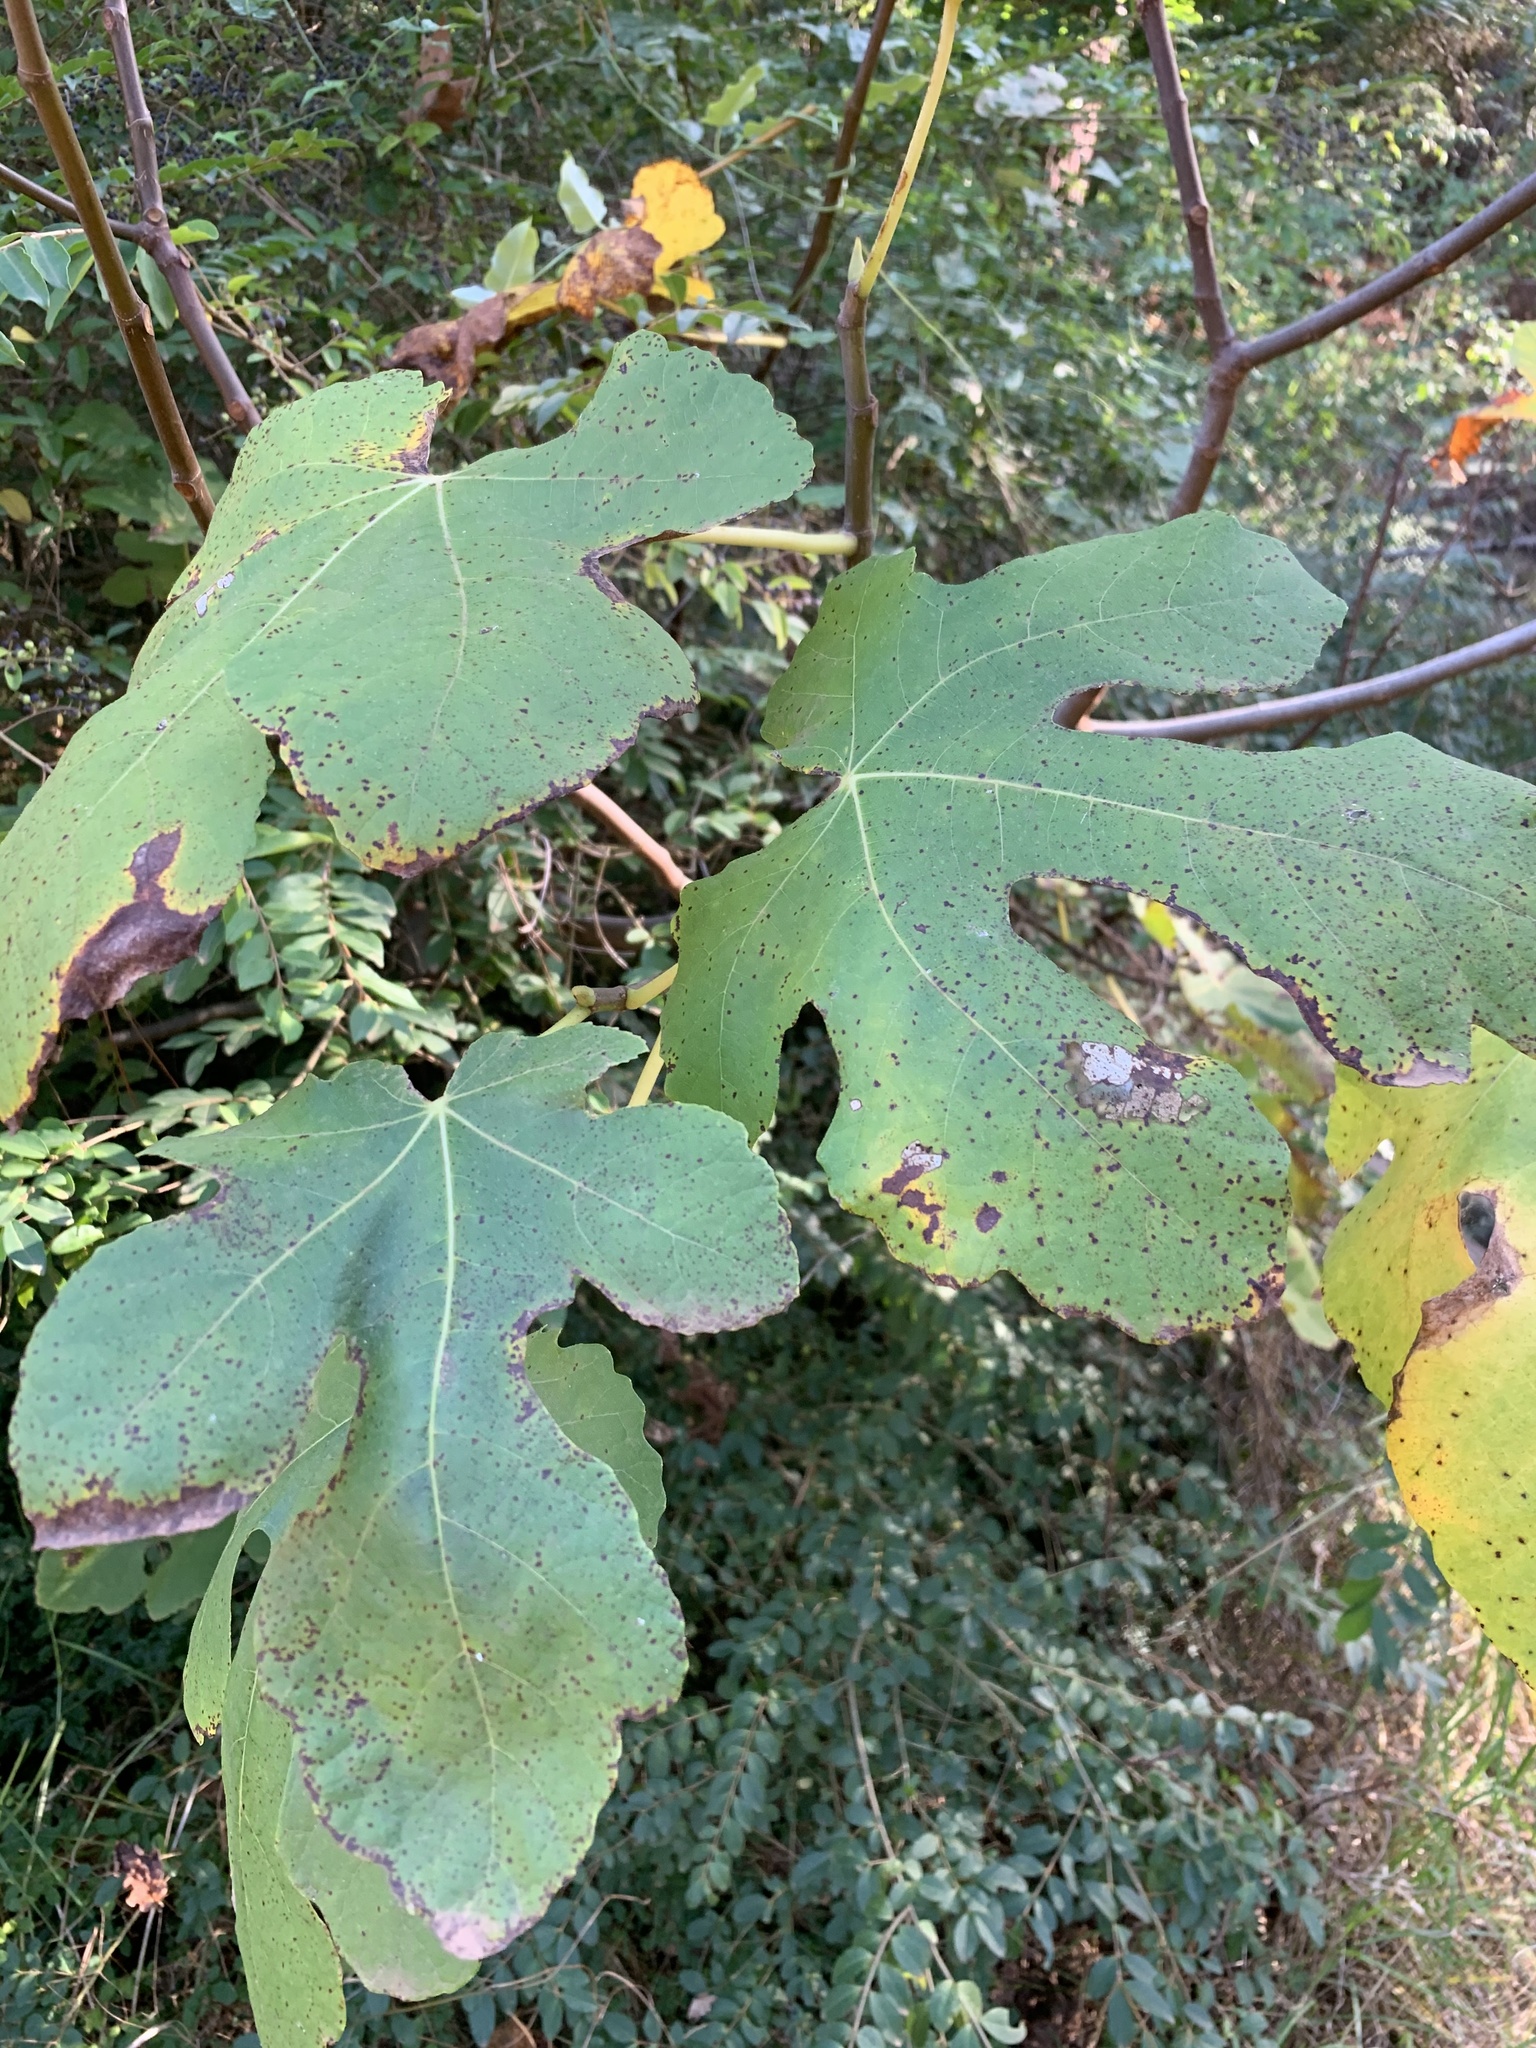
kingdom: Plantae
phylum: Tracheophyta
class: Magnoliopsida
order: Rosales
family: Moraceae
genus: Ficus
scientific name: Ficus carica
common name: Fig
